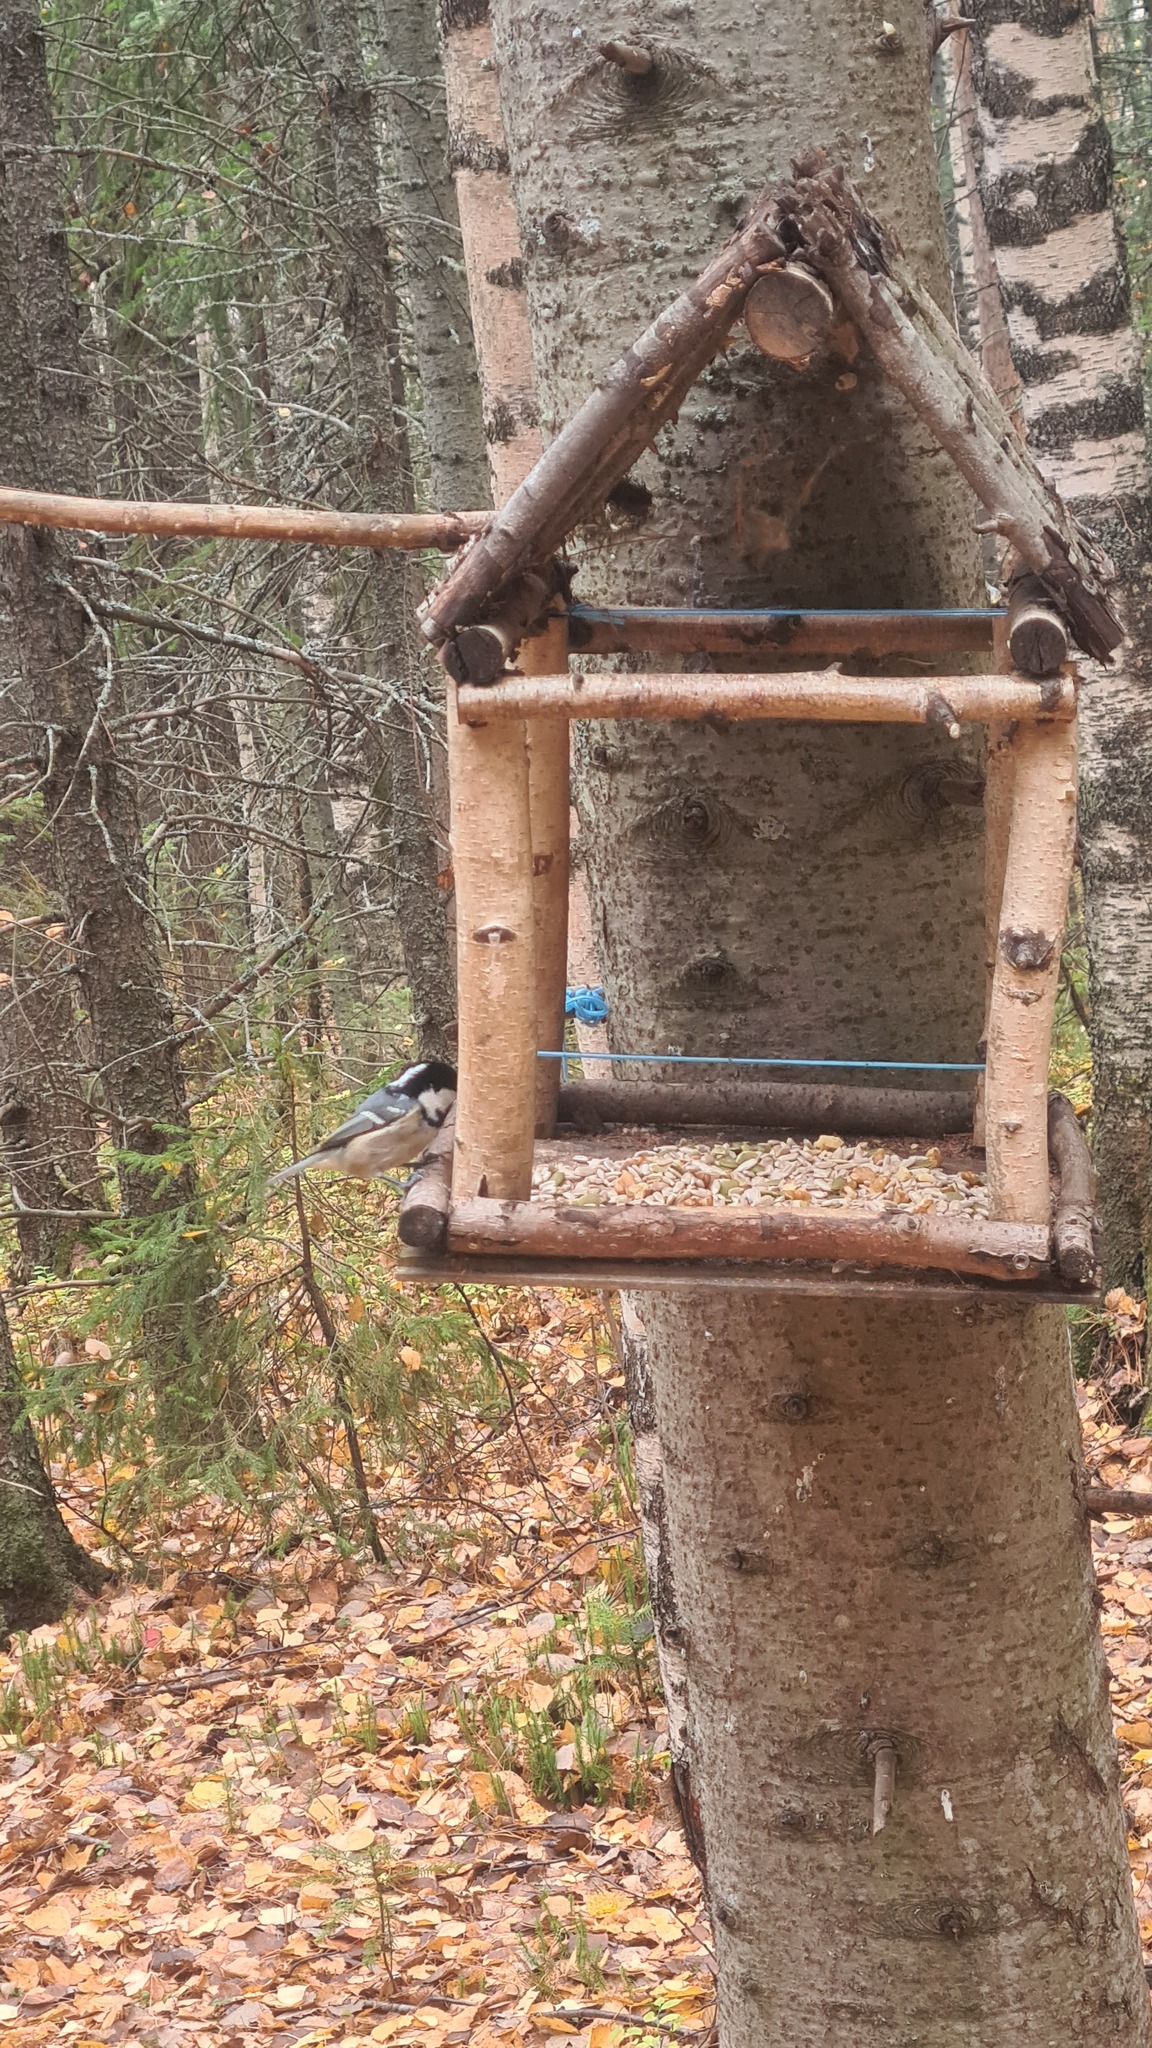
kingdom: Animalia
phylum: Chordata
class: Aves
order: Passeriformes
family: Paridae
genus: Periparus
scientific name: Periparus ater
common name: Coal tit
